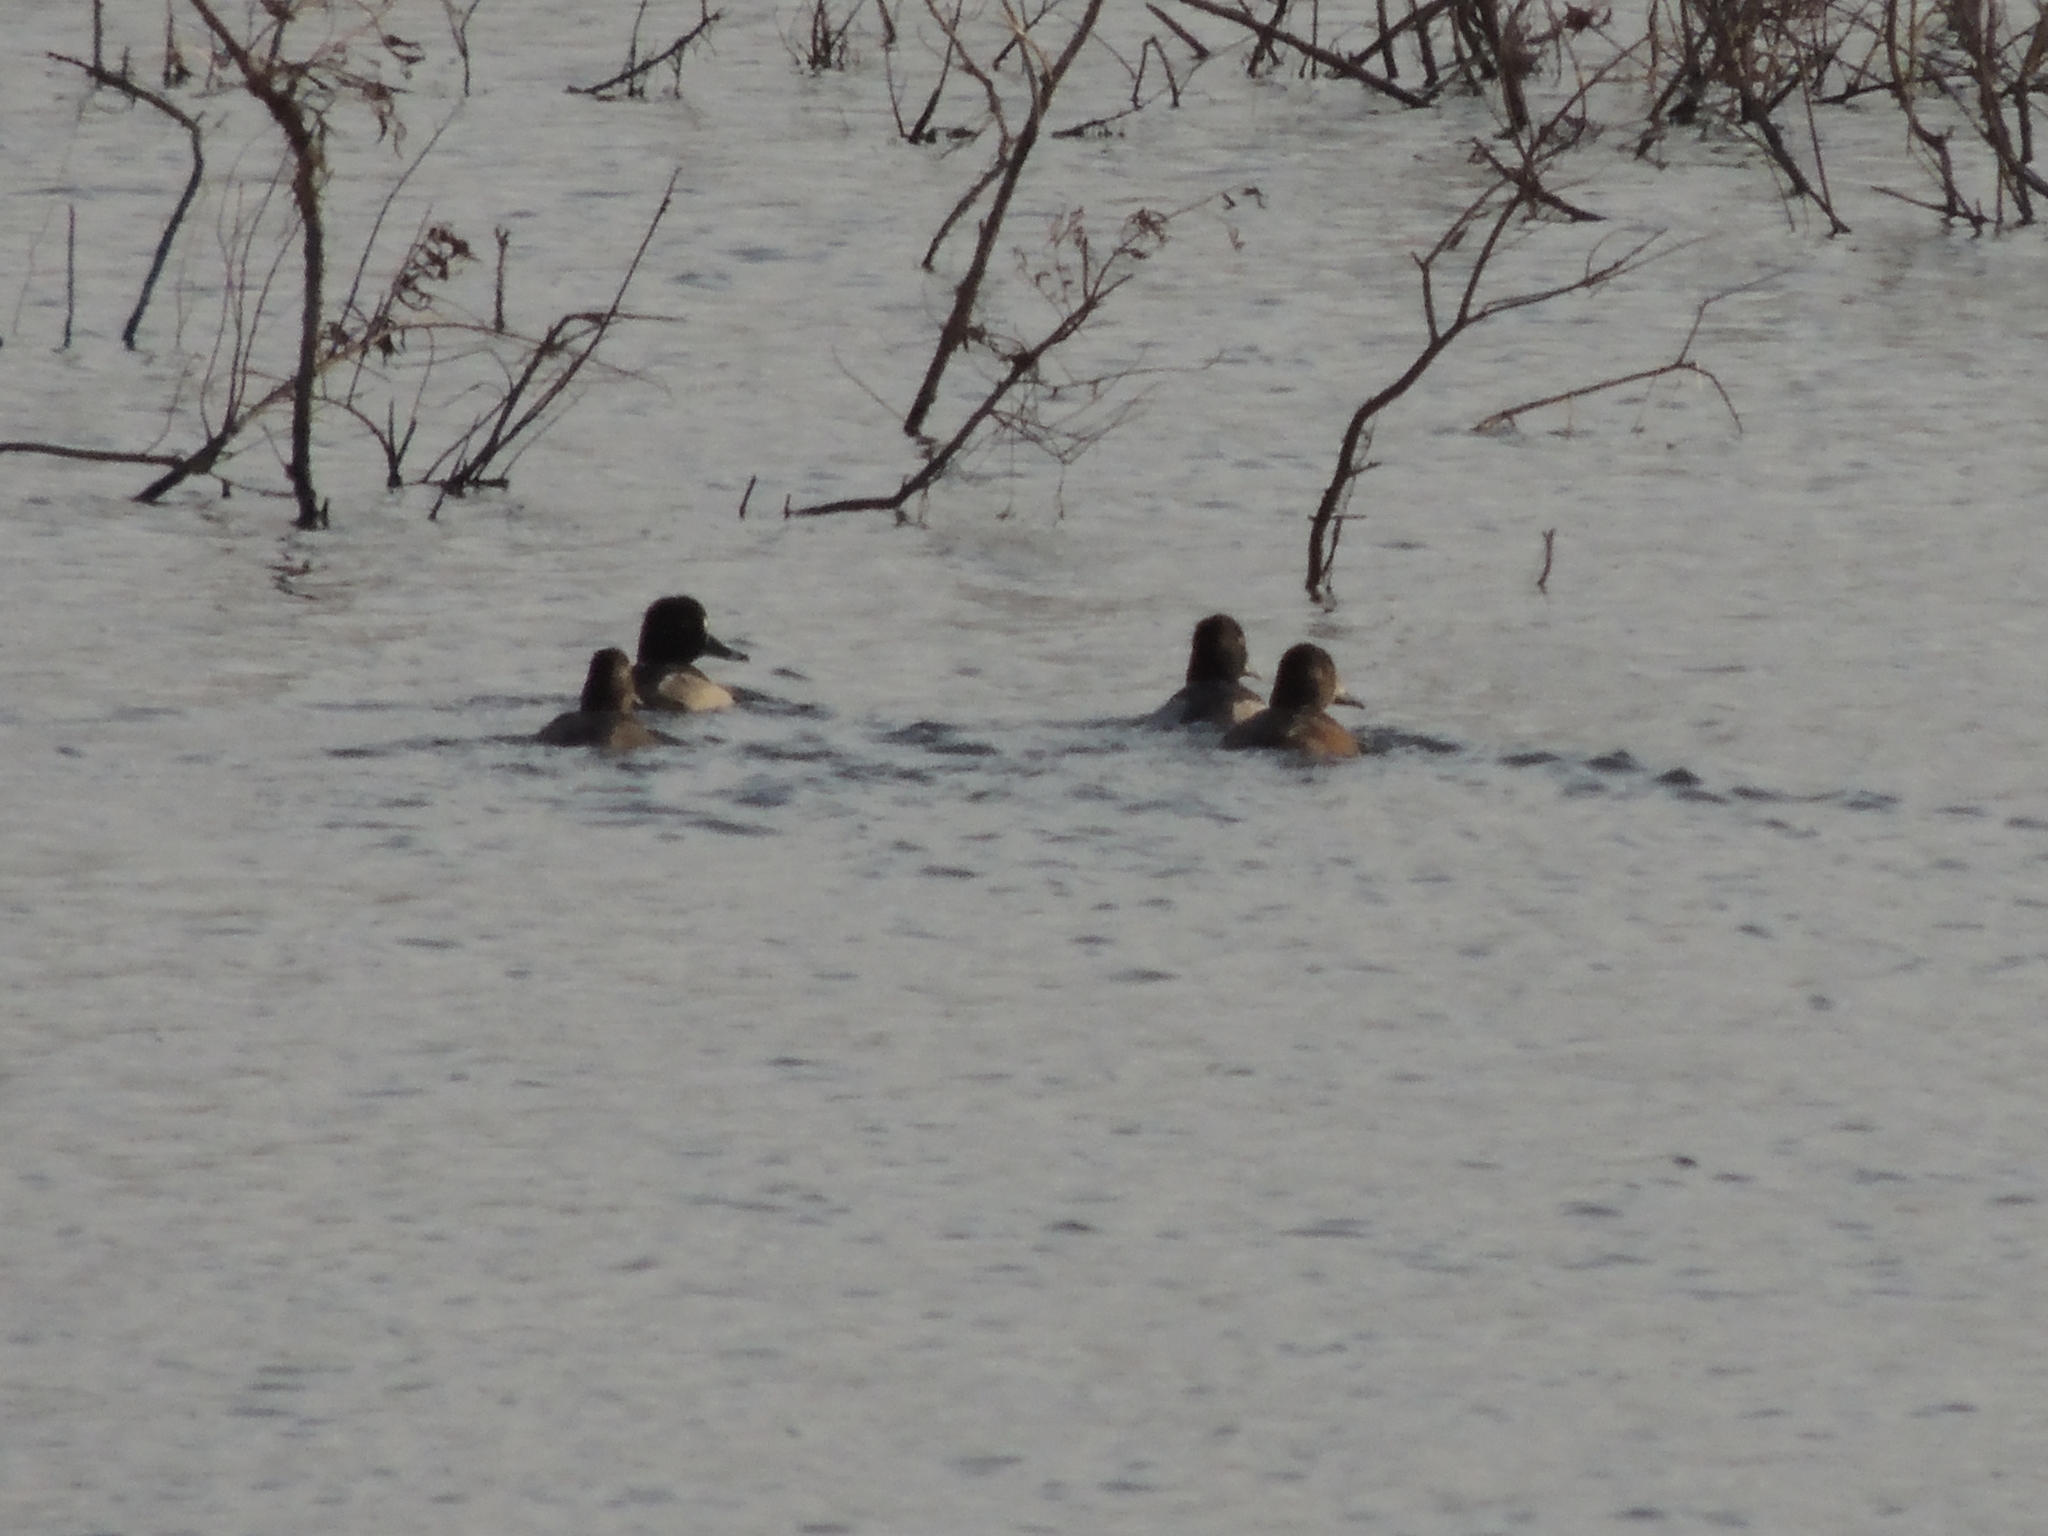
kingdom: Animalia
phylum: Chordata
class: Aves
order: Anseriformes
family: Anatidae
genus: Aythya
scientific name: Aythya collaris
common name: Ring-necked duck
